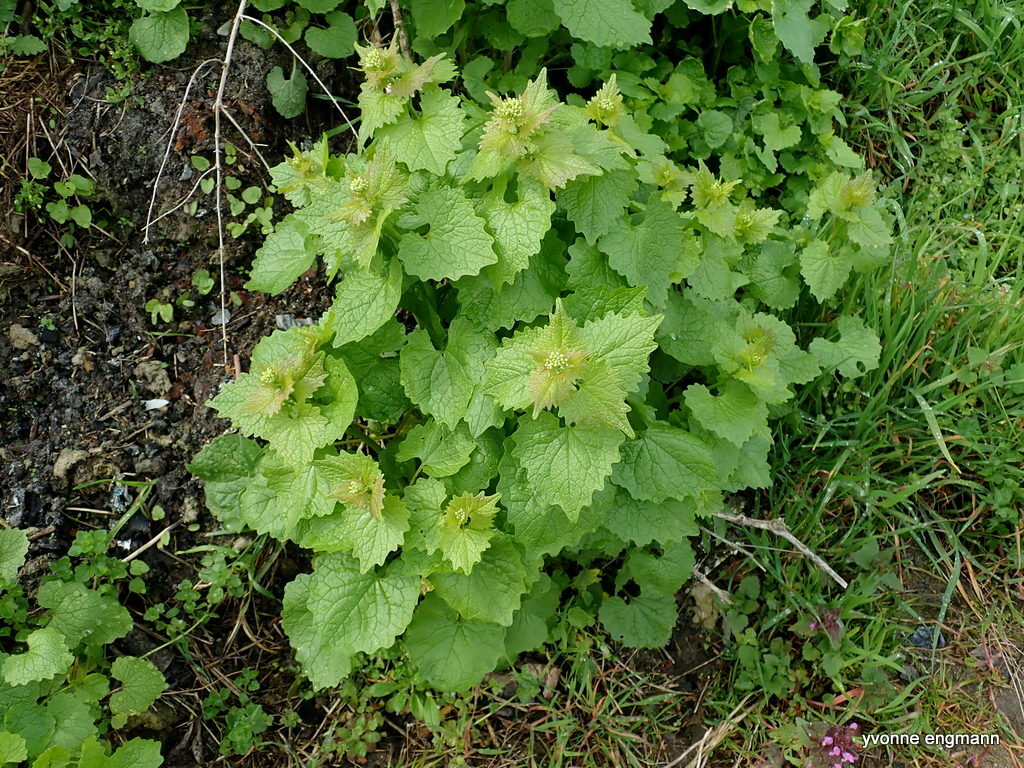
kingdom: Plantae
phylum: Tracheophyta
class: Magnoliopsida
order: Brassicales
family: Brassicaceae
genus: Alliaria
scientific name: Alliaria petiolata
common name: Garlic mustard
